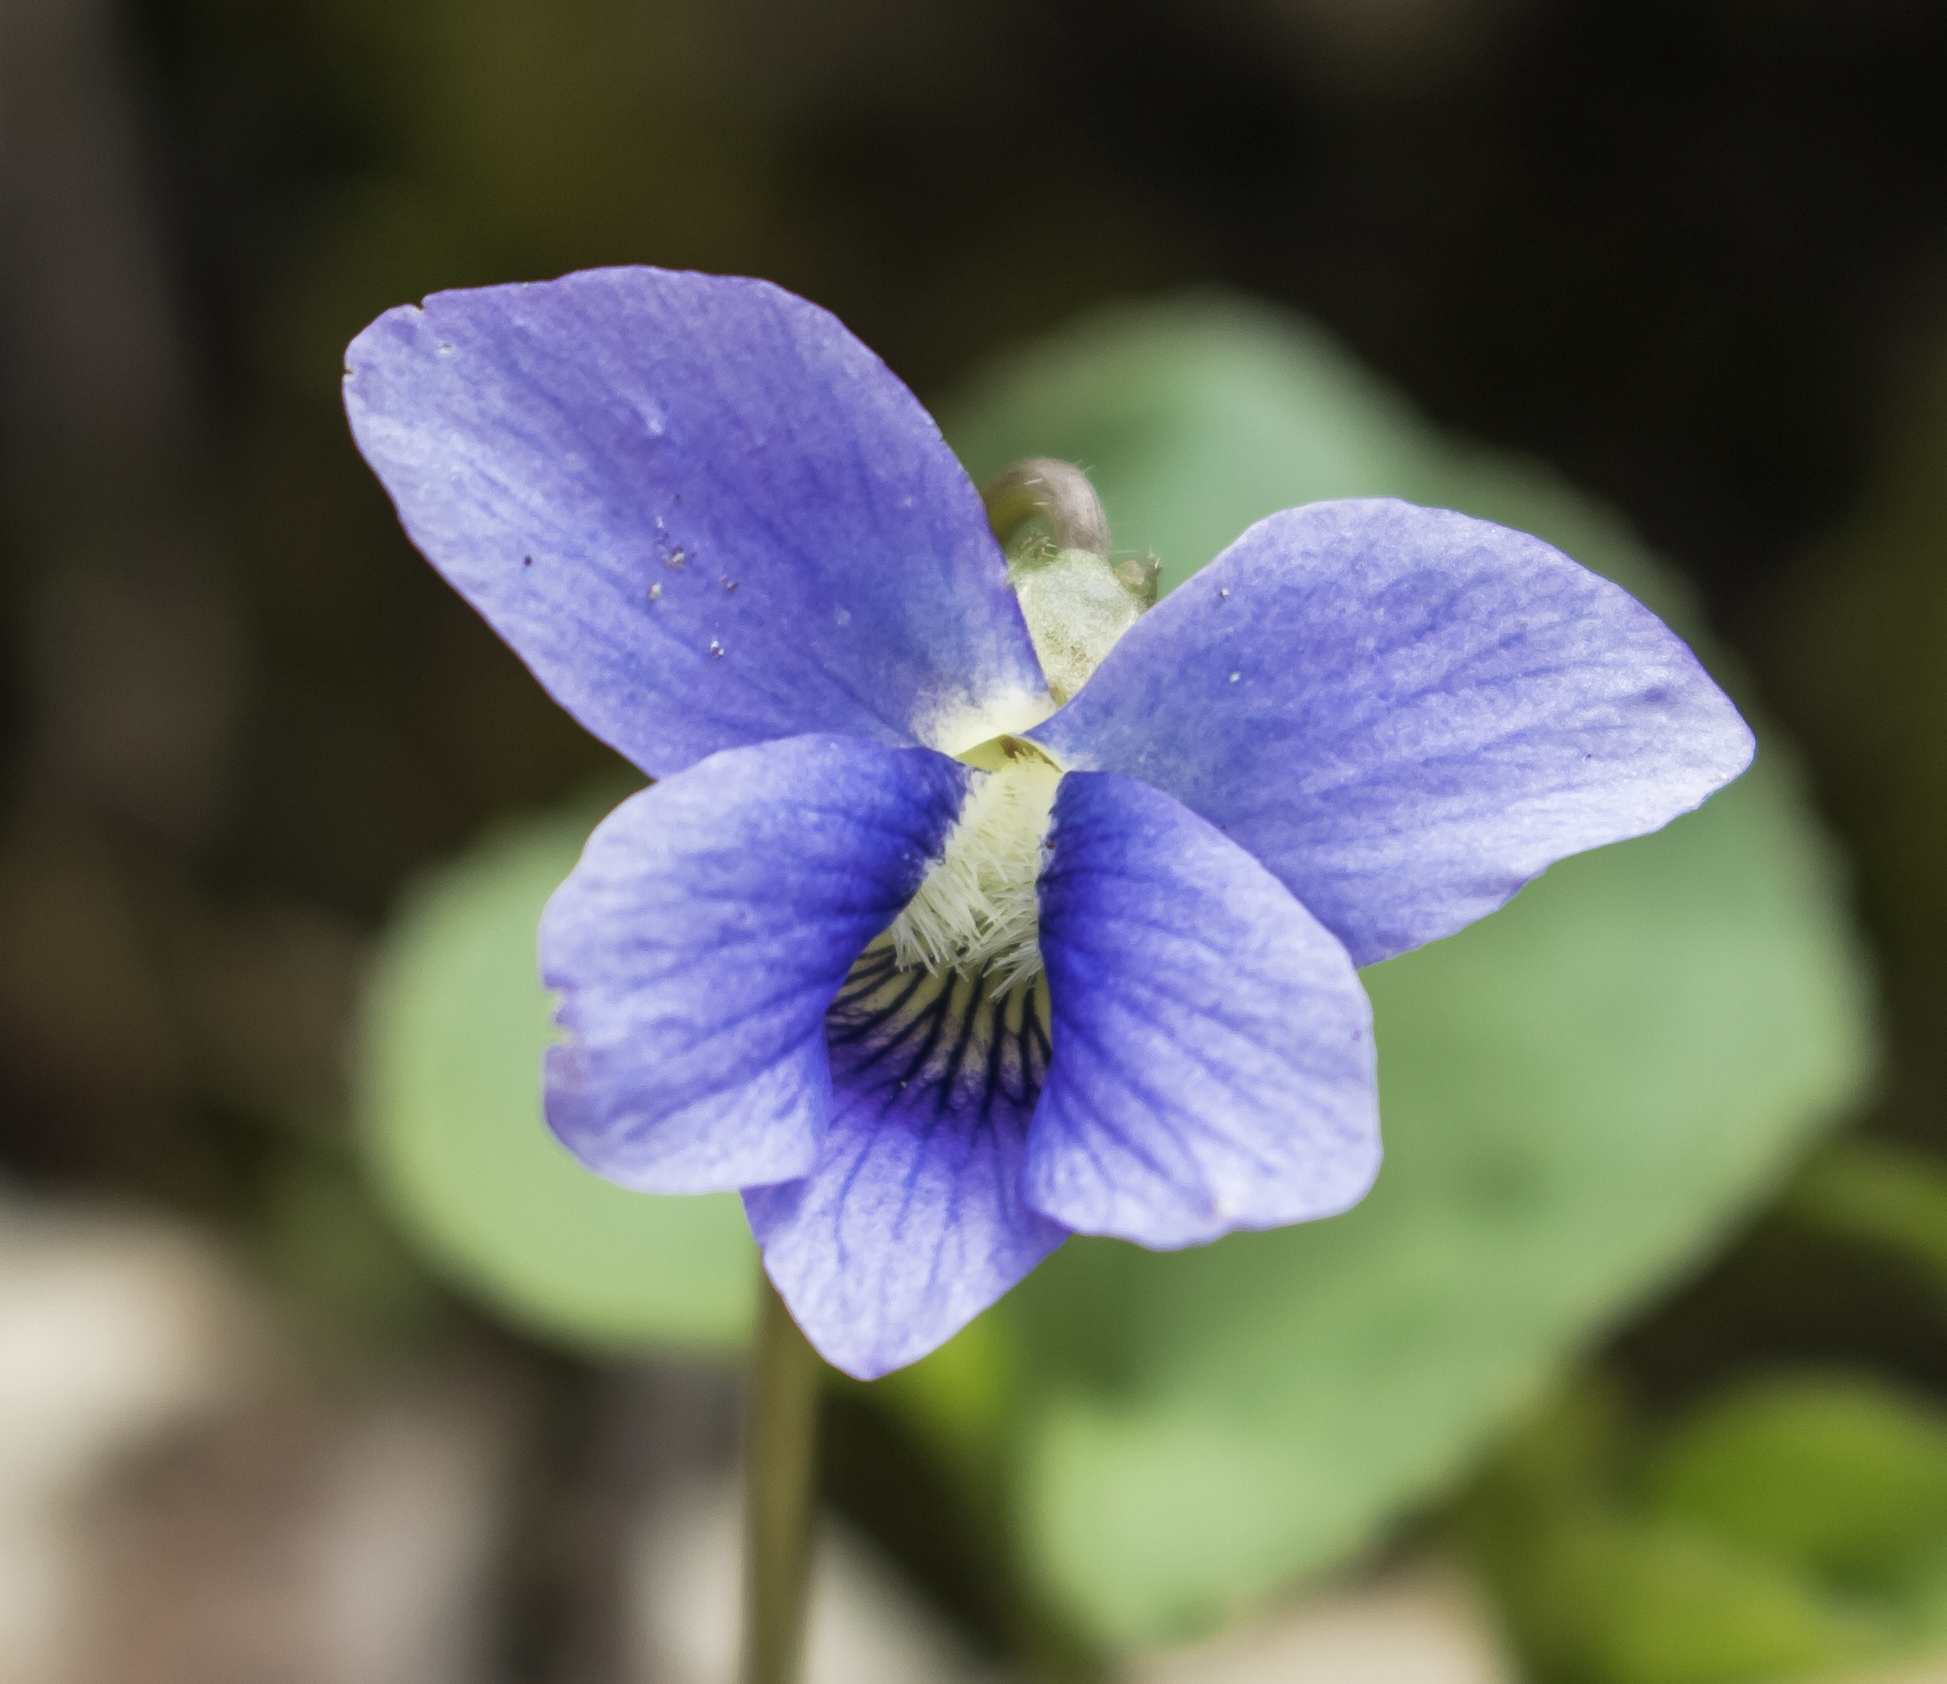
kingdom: Plantae
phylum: Tracheophyta
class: Magnoliopsida
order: Malpighiales
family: Violaceae
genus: Viola
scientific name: Viola sororia
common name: Dooryard violet
